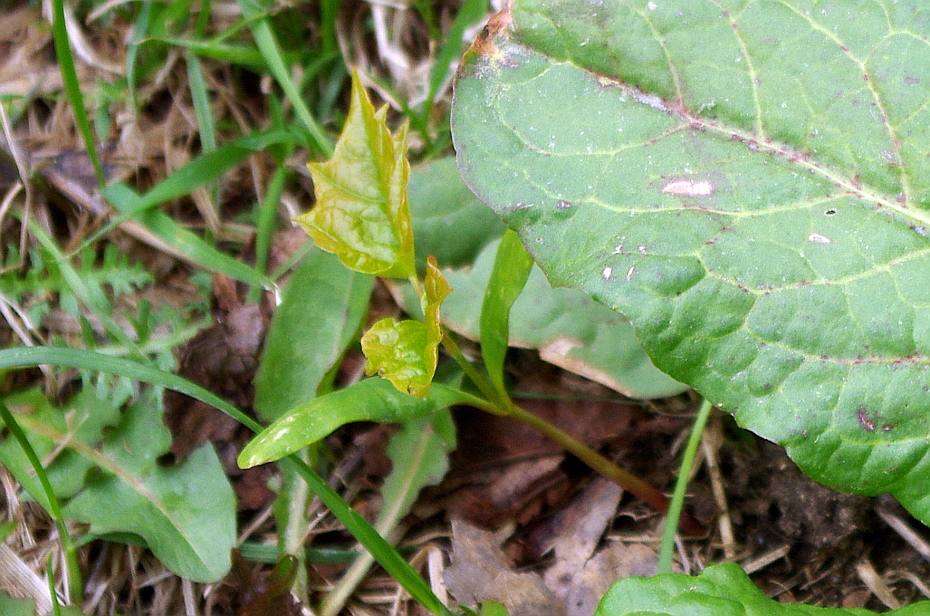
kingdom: Plantae
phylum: Tracheophyta
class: Magnoliopsida
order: Sapindales
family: Sapindaceae
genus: Acer
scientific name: Acer platanoides
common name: Norway maple
